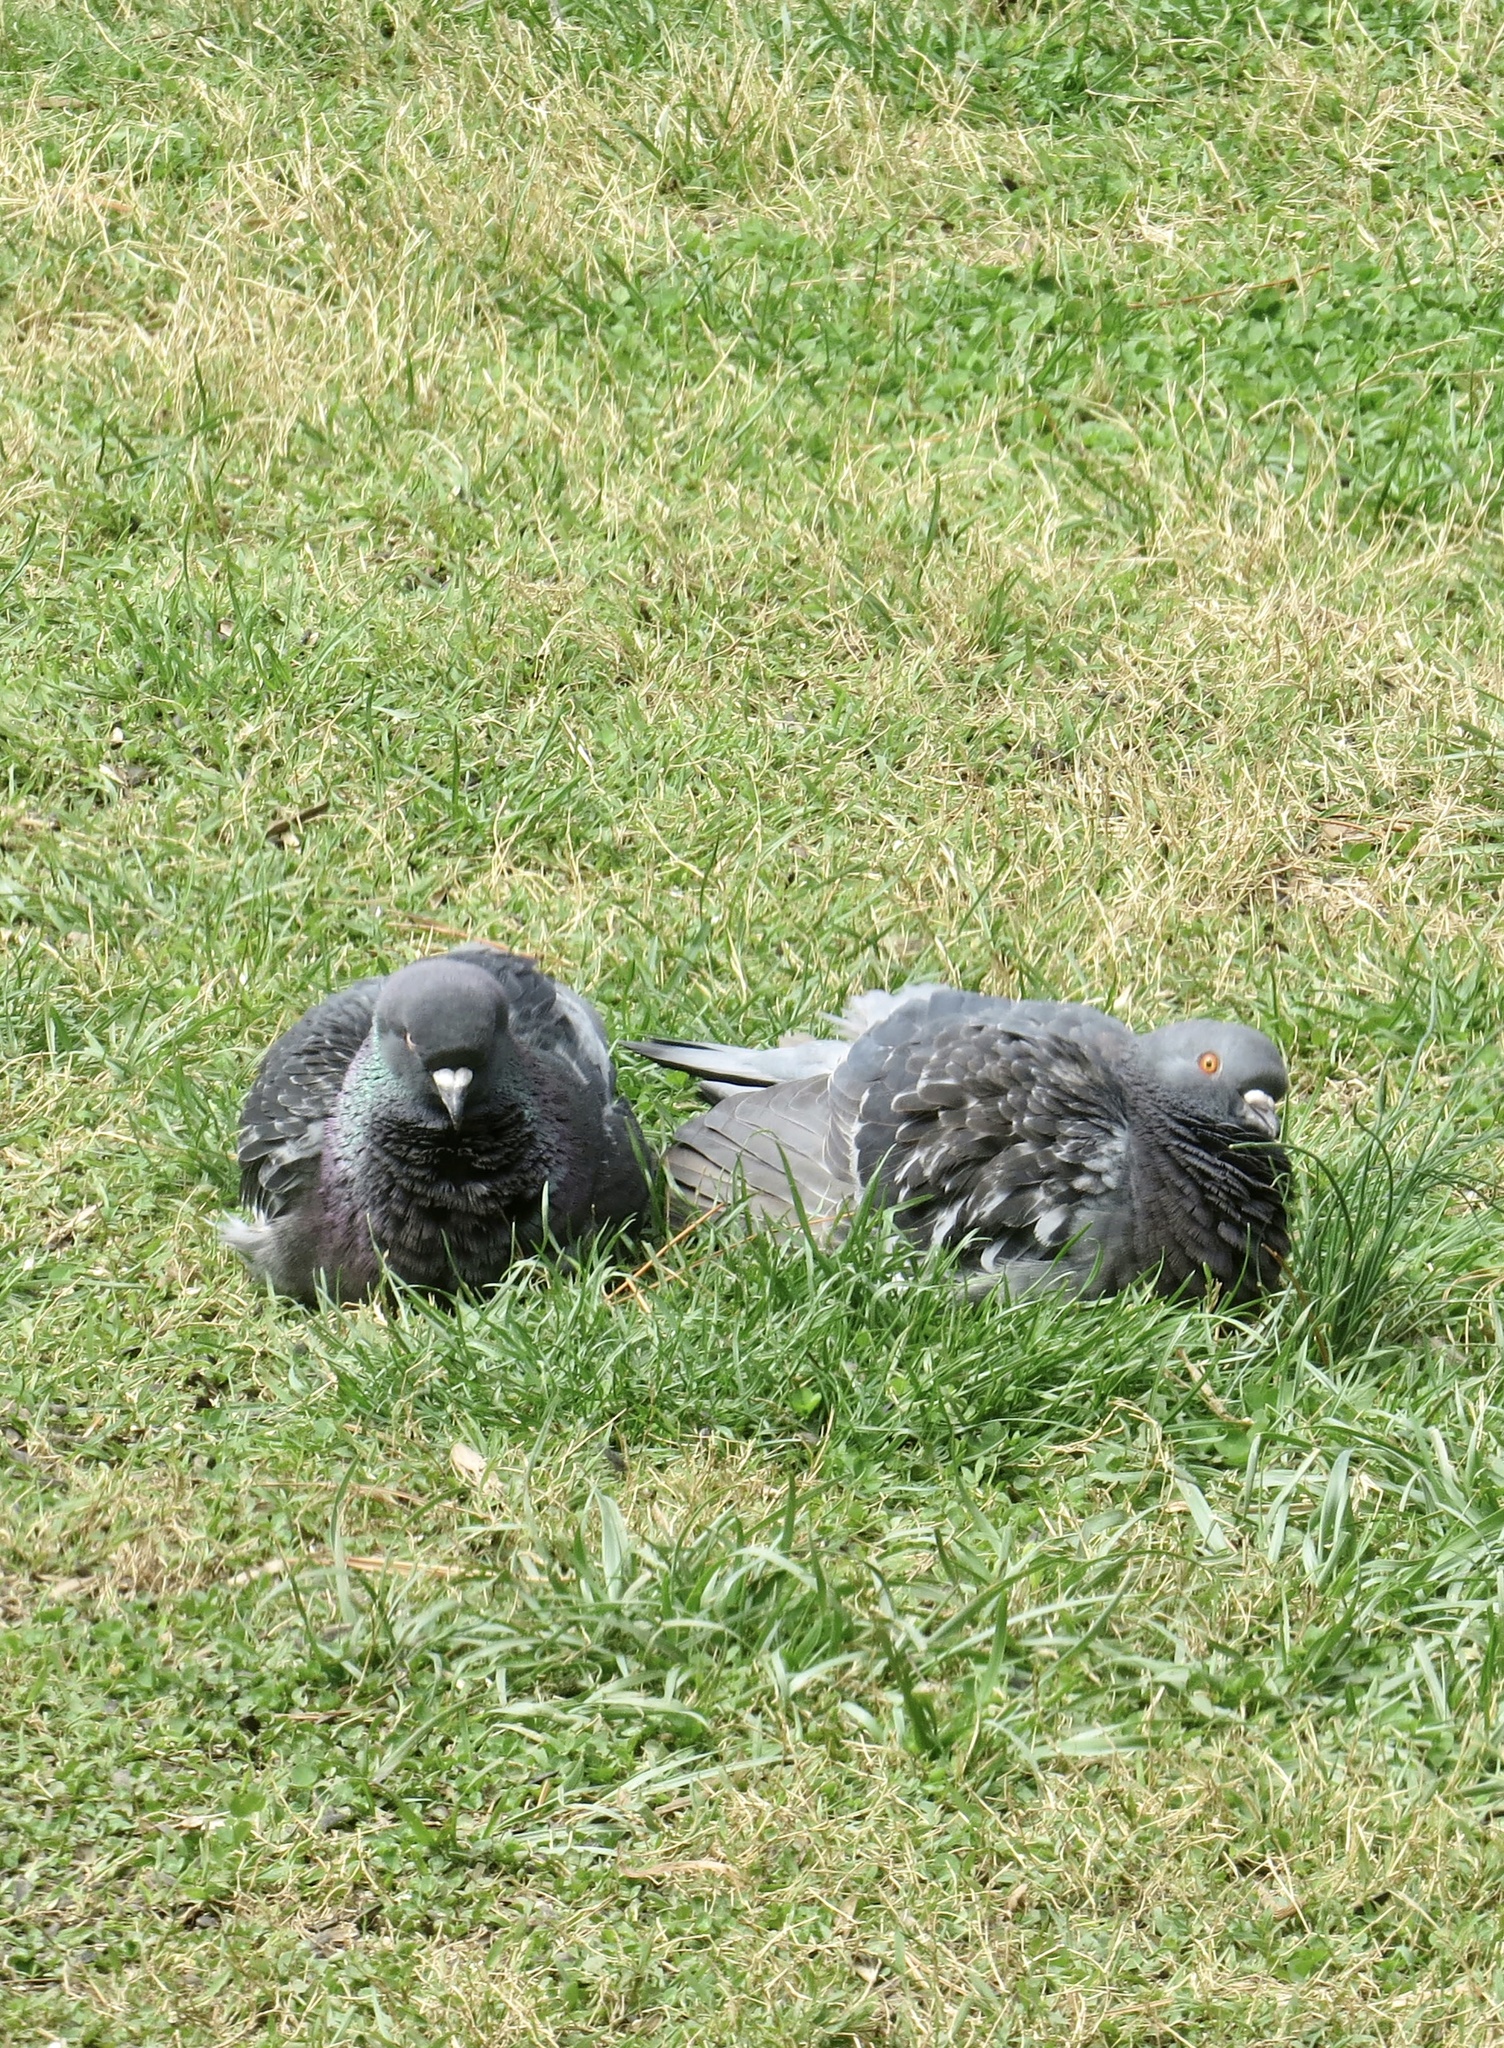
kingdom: Animalia
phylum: Chordata
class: Aves
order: Columbiformes
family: Columbidae
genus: Columba
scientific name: Columba livia
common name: Rock pigeon
